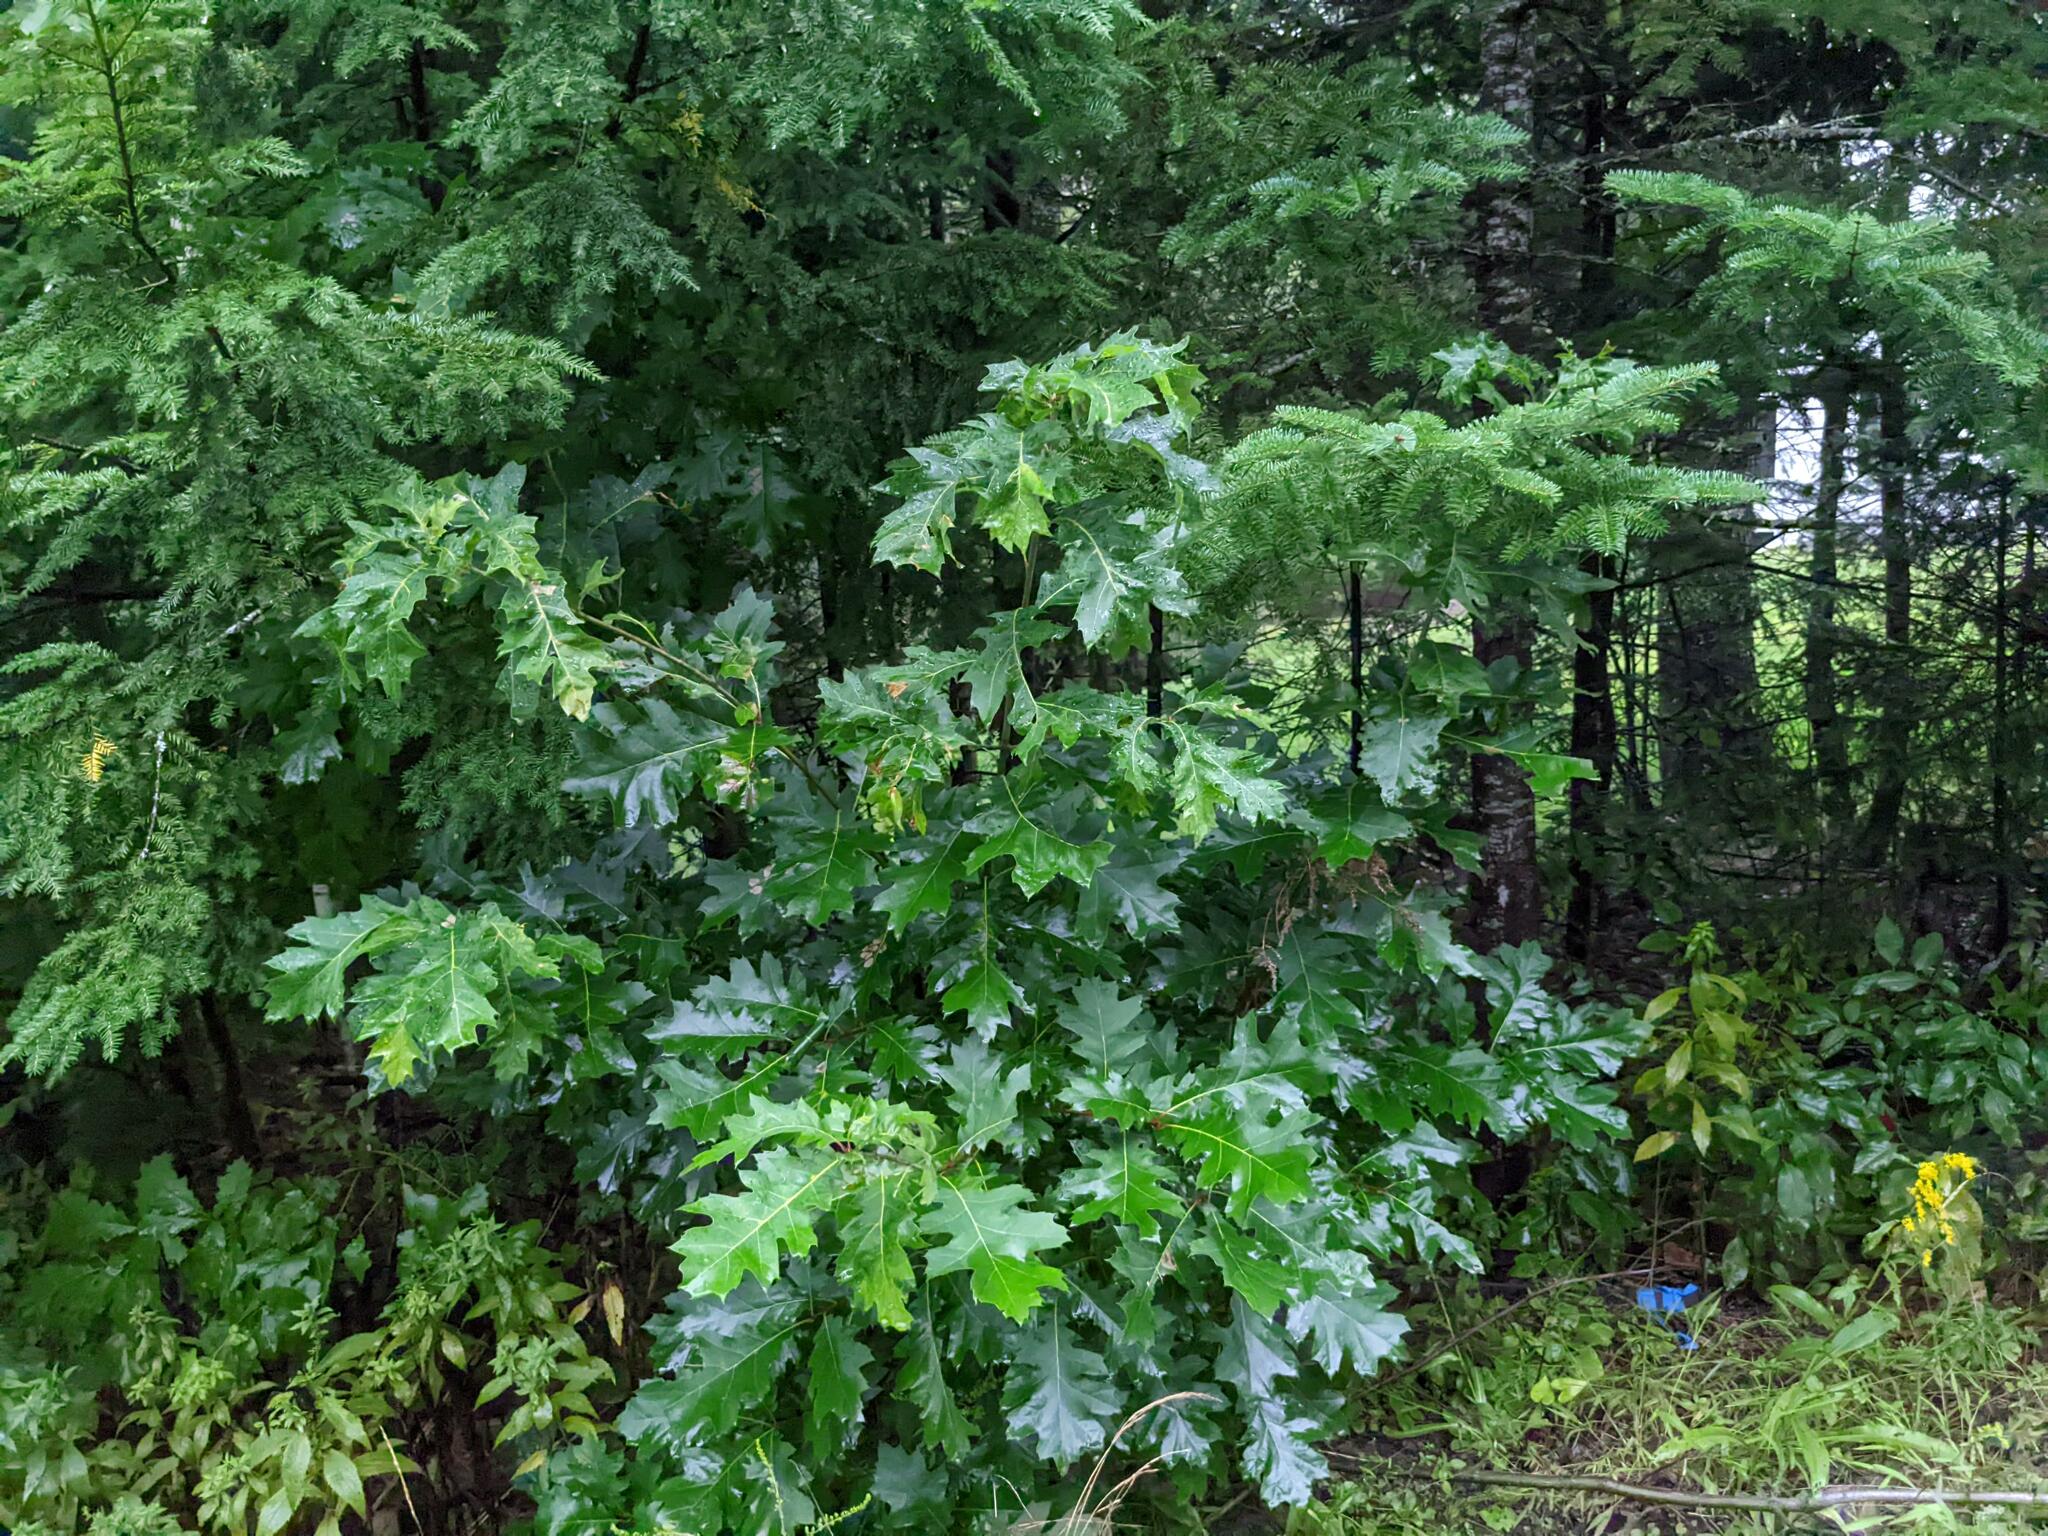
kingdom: Plantae
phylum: Tracheophyta
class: Pinopsida
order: Pinales
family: Pinaceae
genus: Abies
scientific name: Abies balsamea
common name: Balsam fir
